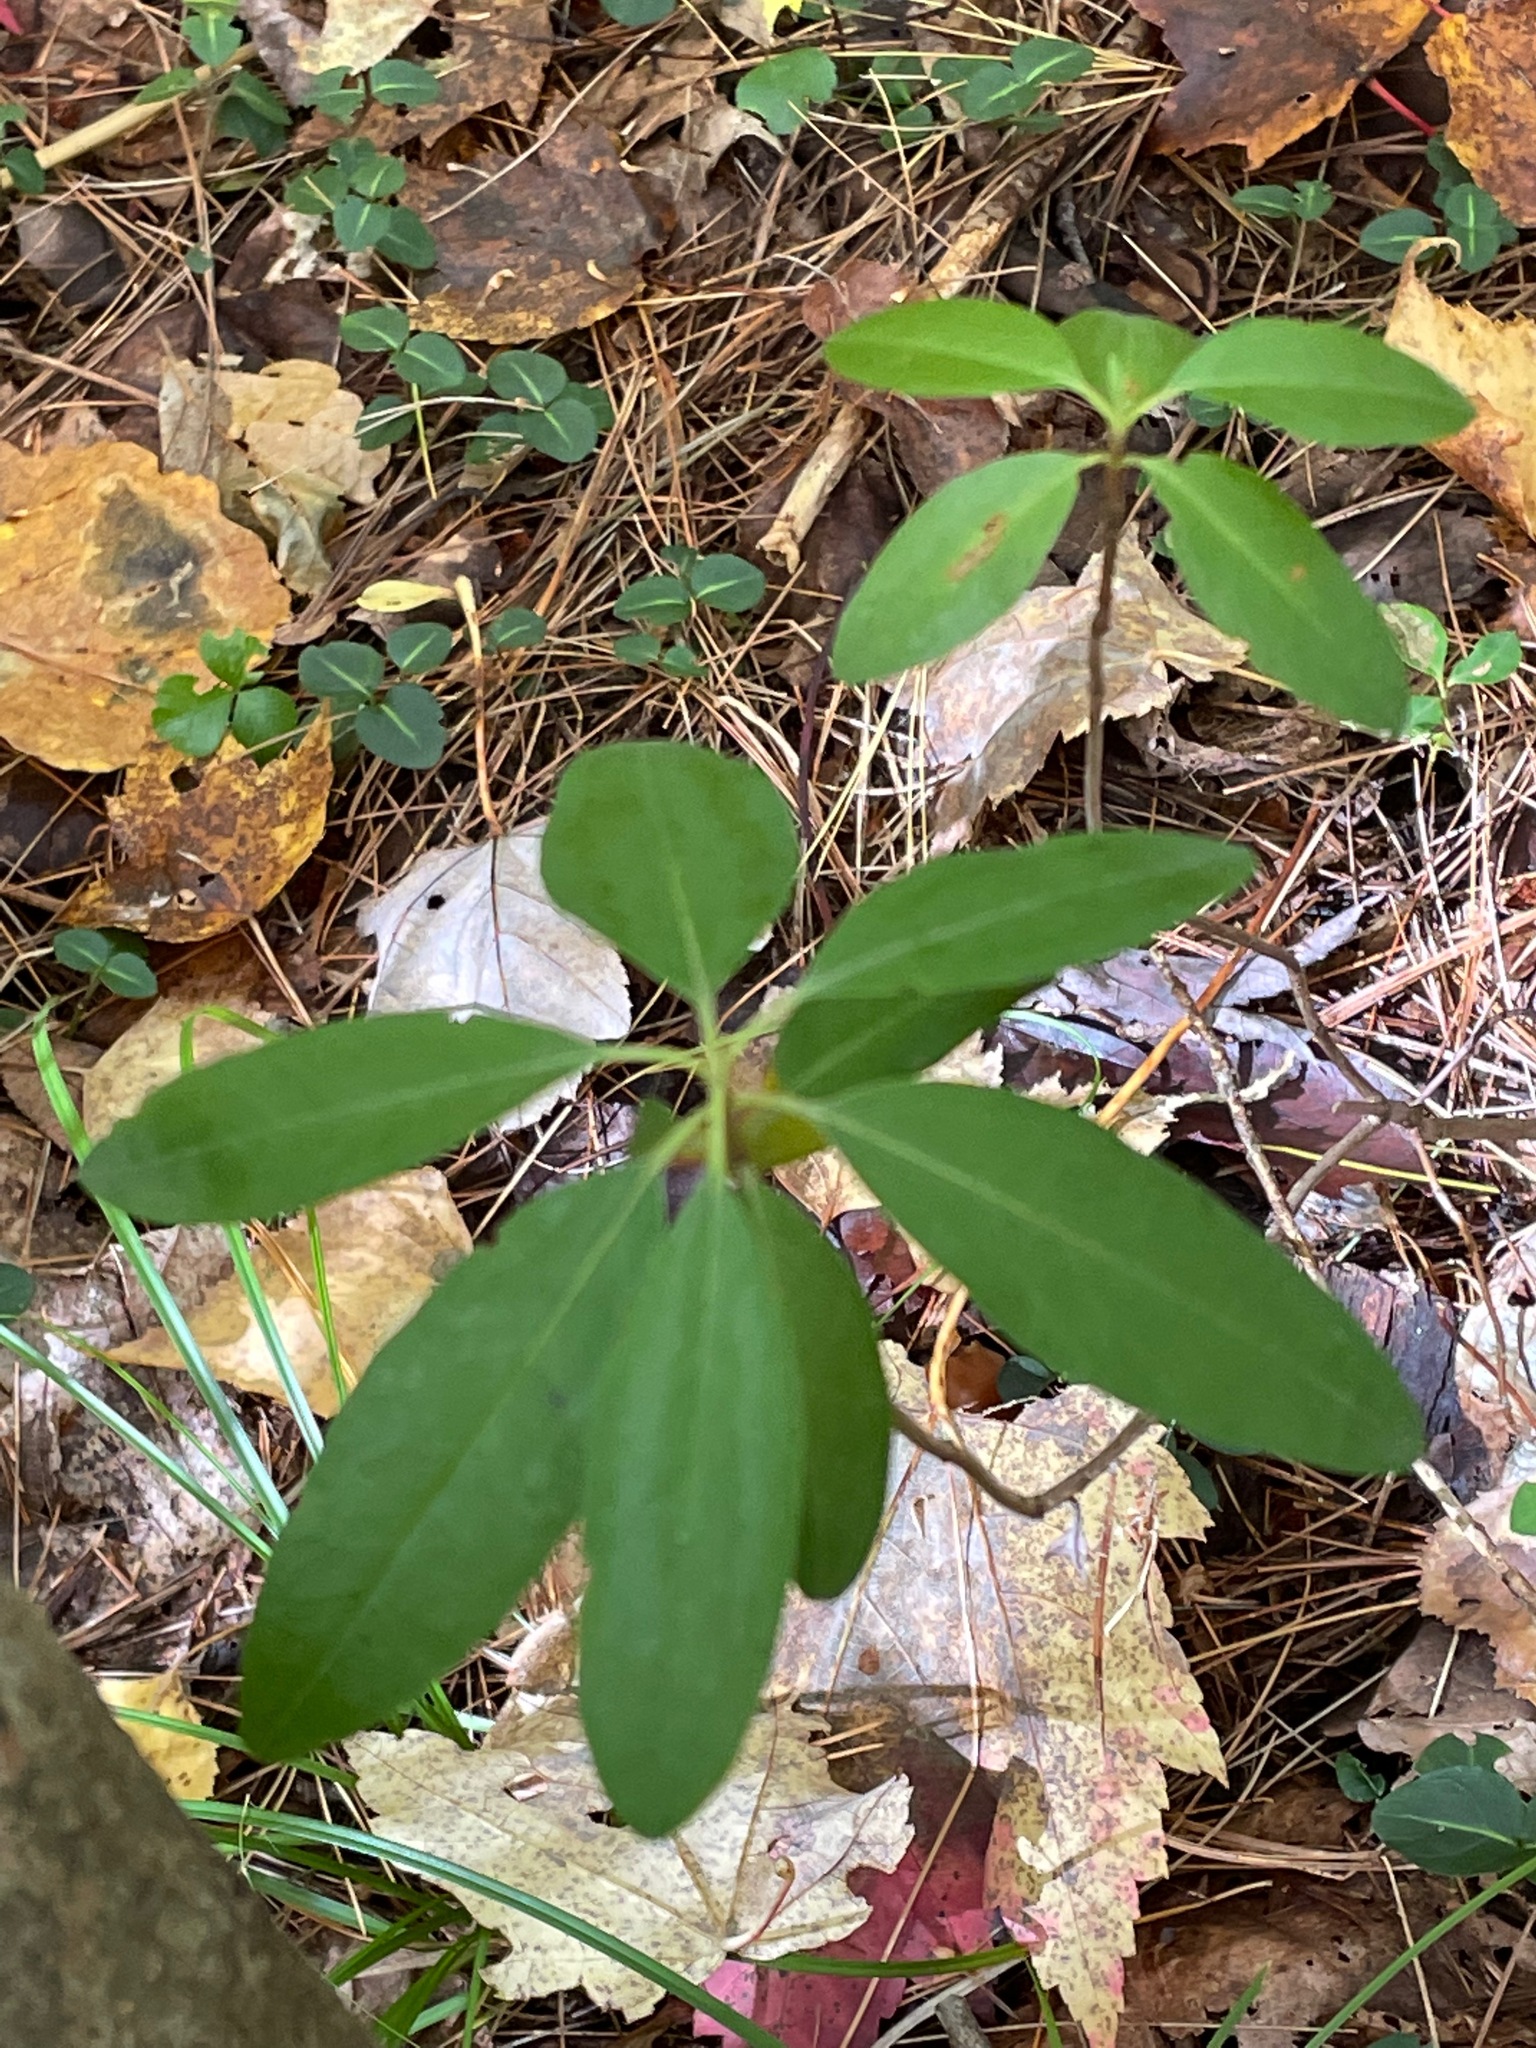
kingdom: Plantae
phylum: Tracheophyta
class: Magnoliopsida
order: Ericales
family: Ericaceae
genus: Kalmia
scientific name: Kalmia angustifolia
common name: Sheep-laurel
